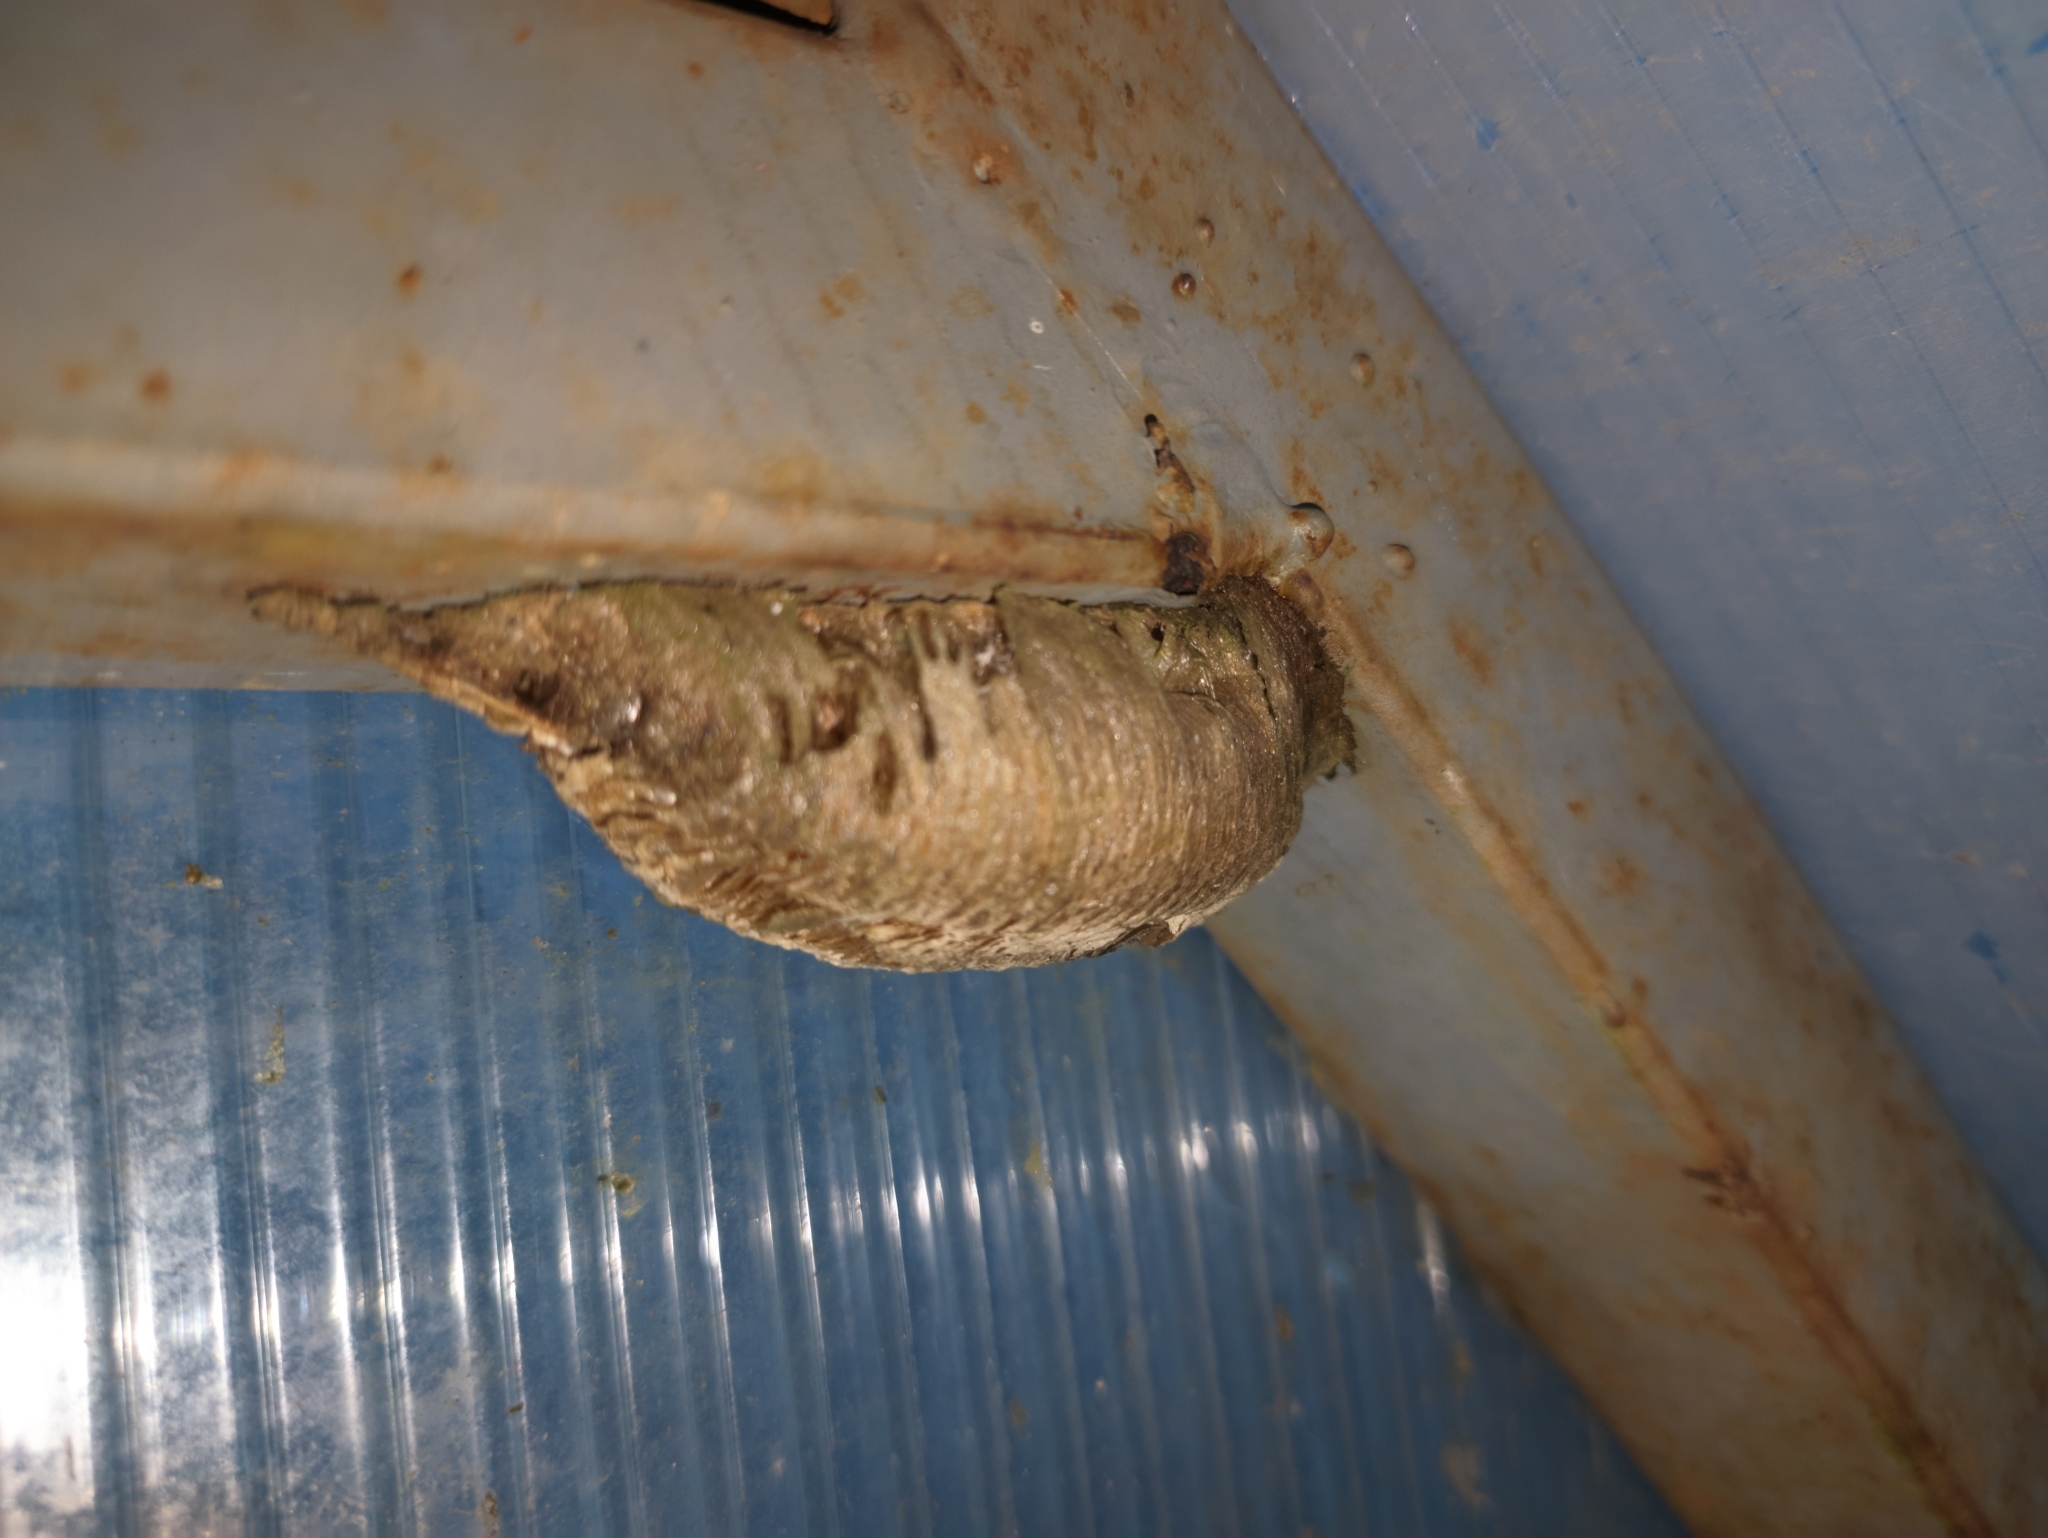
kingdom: Animalia
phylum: Arthropoda
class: Insecta
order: Mantodea
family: Mantidae
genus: Mantis
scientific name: Mantis religiosa
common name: Praying mantis
